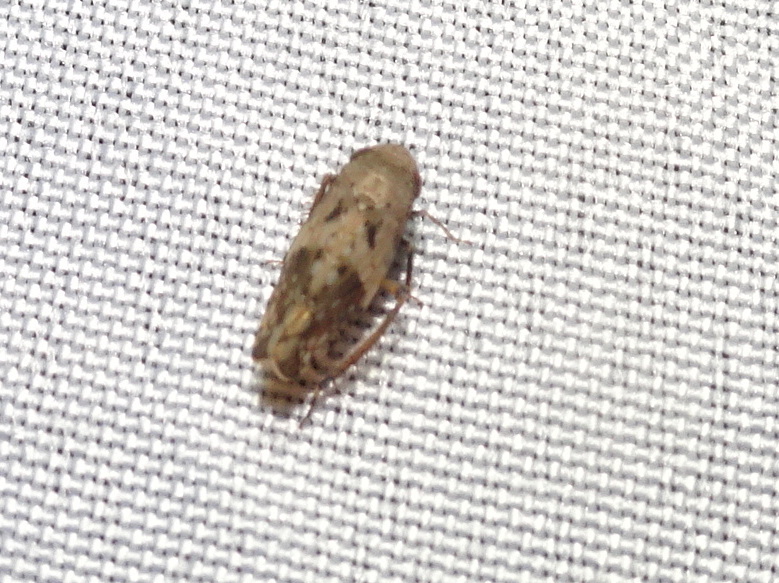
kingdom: Animalia
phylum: Arthropoda
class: Insecta
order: Hemiptera
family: Cicadellidae
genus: Menosoma
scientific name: Menosoma cinctum
